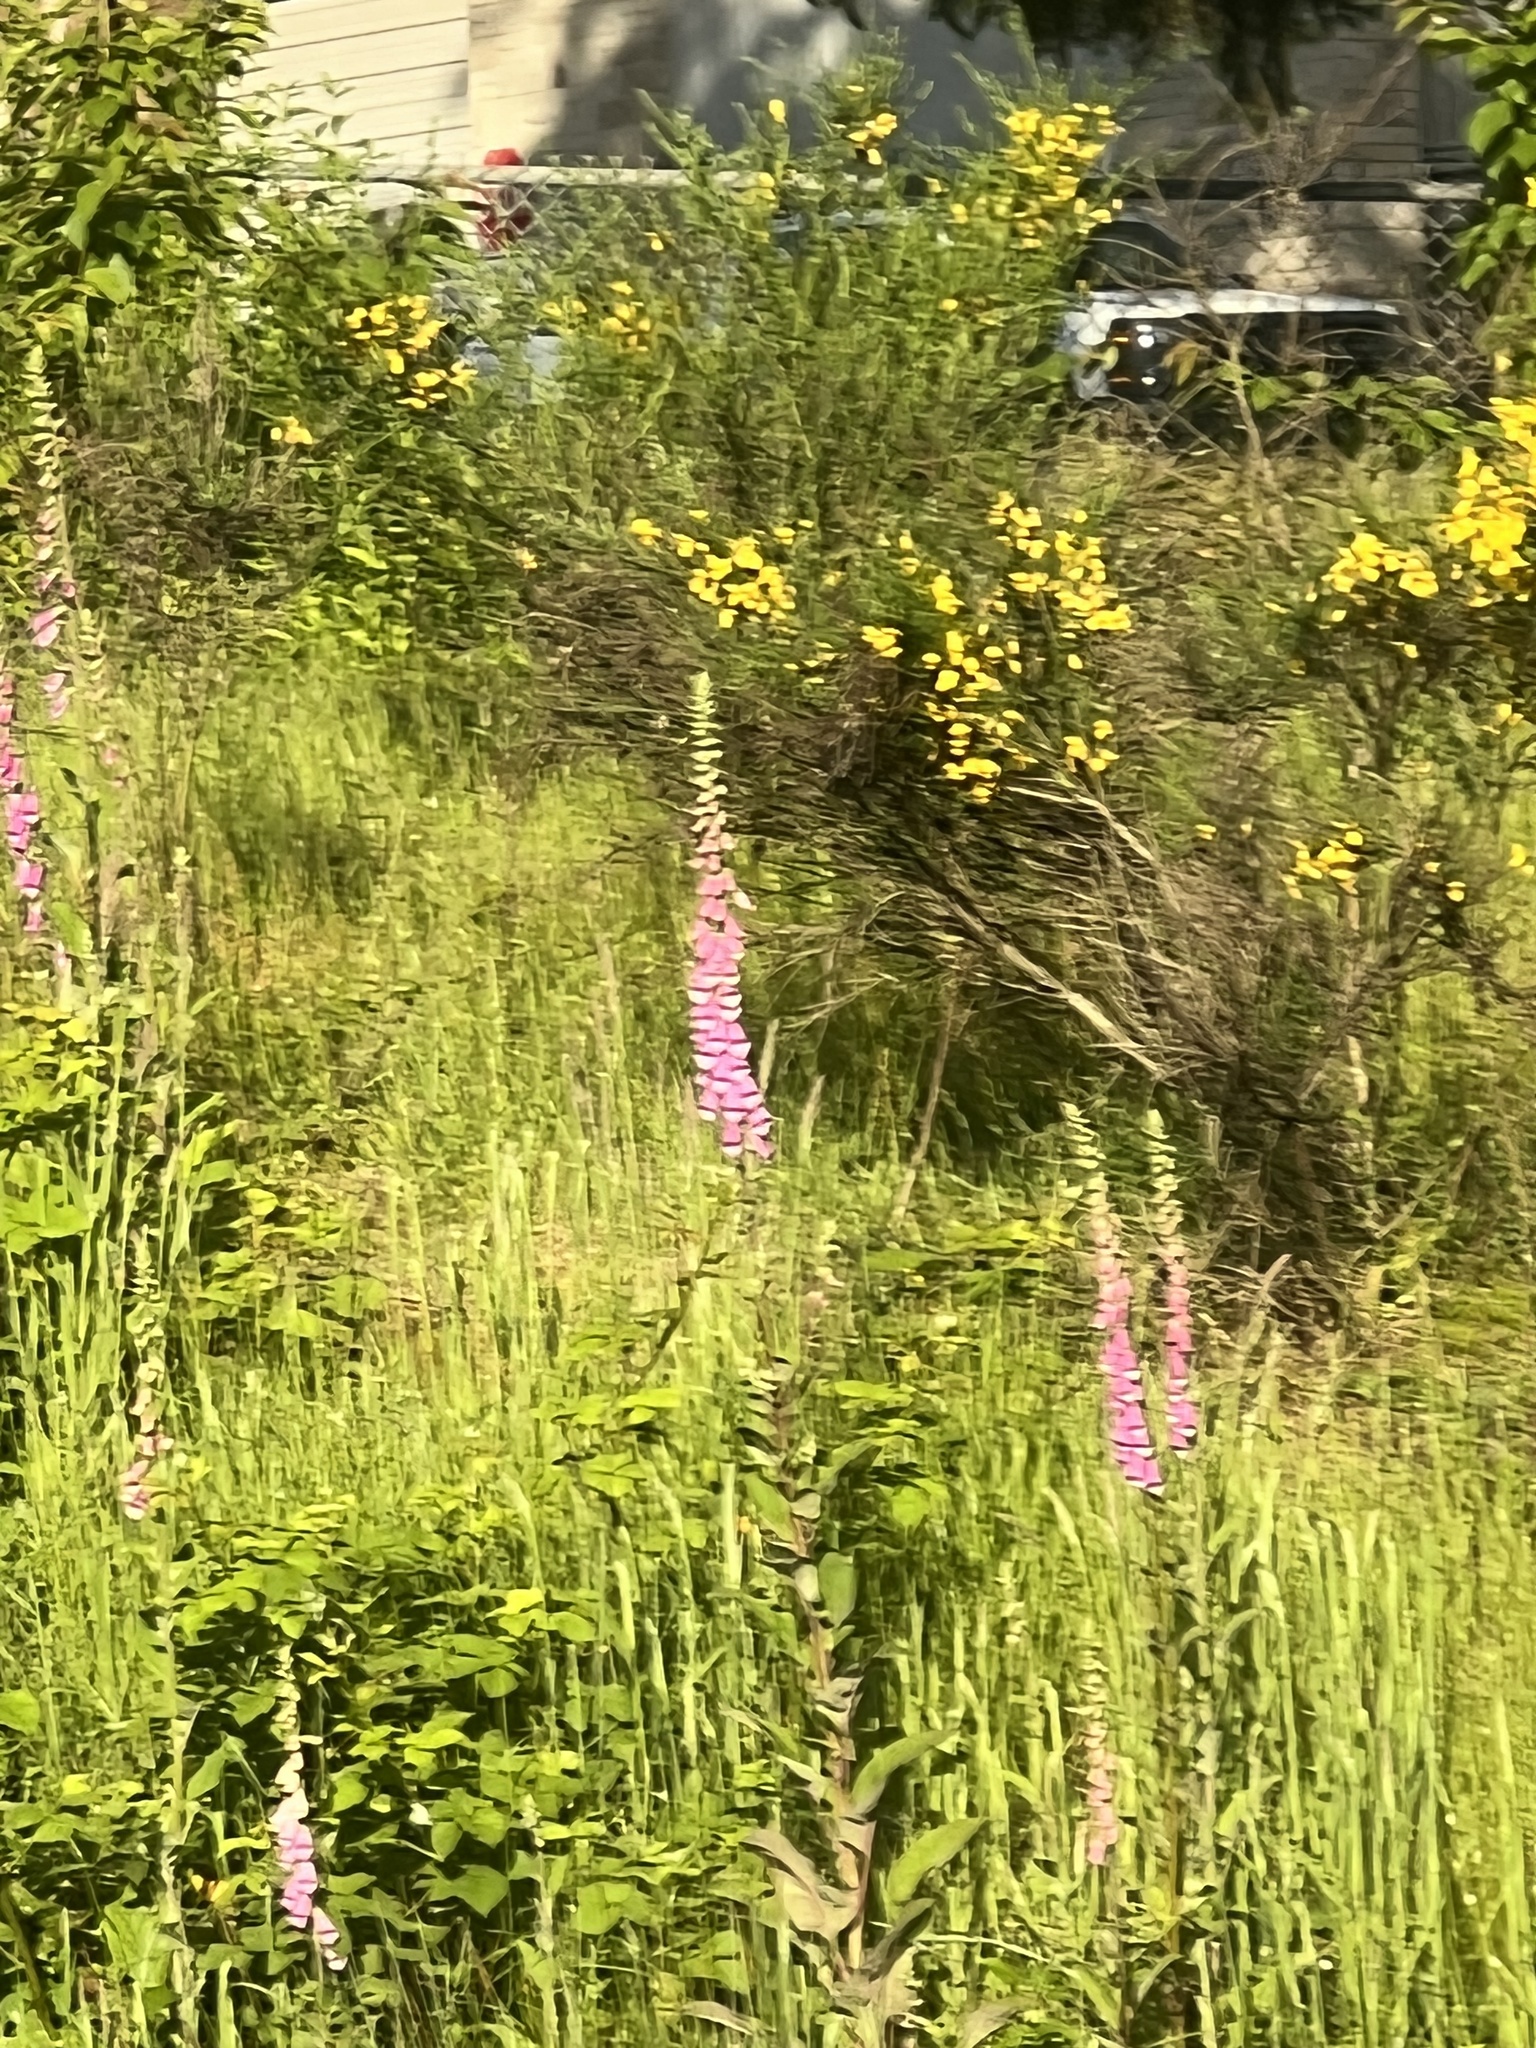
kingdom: Plantae
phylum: Tracheophyta
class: Magnoliopsida
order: Lamiales
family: Plantaginaceae
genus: Digitalis
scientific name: Digitalis purpurea
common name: Foxglove
